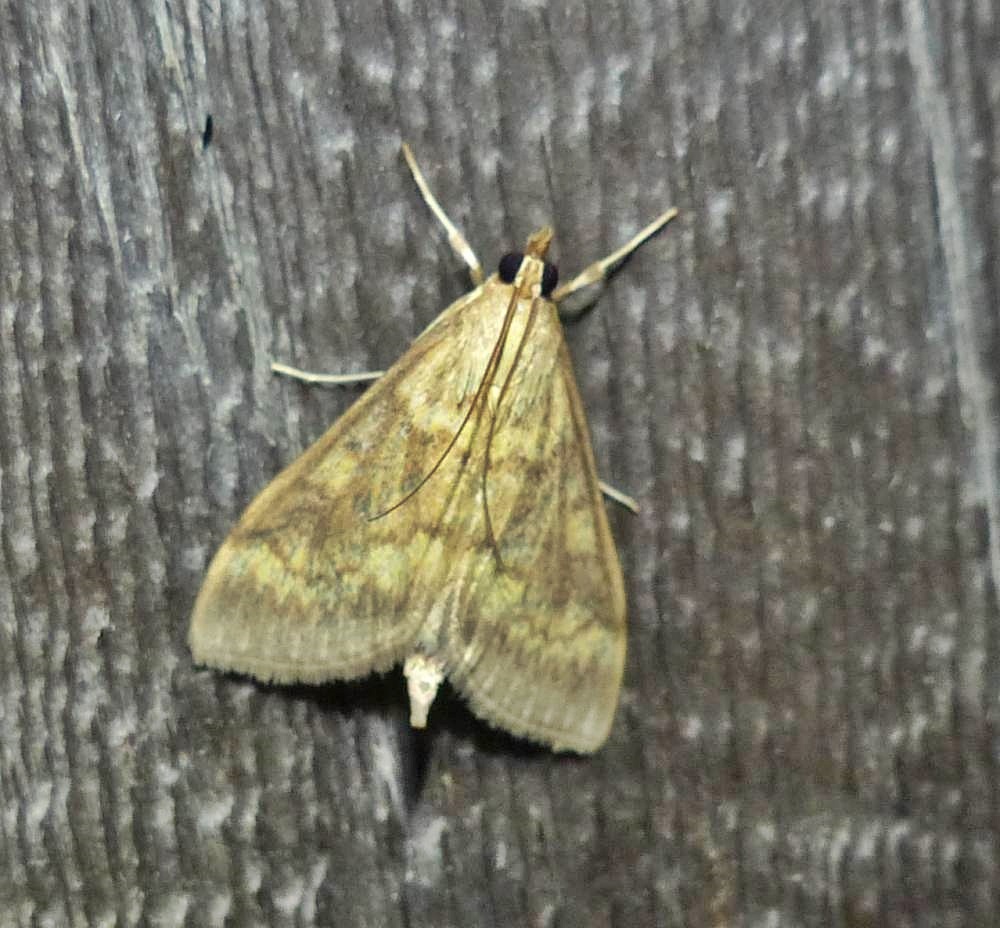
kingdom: Animalia
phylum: Arthropoda
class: Insecta
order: Lepidoptera
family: Crambidae
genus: Ostrinia
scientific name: Ostrinia nubilalis
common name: European corn borer
